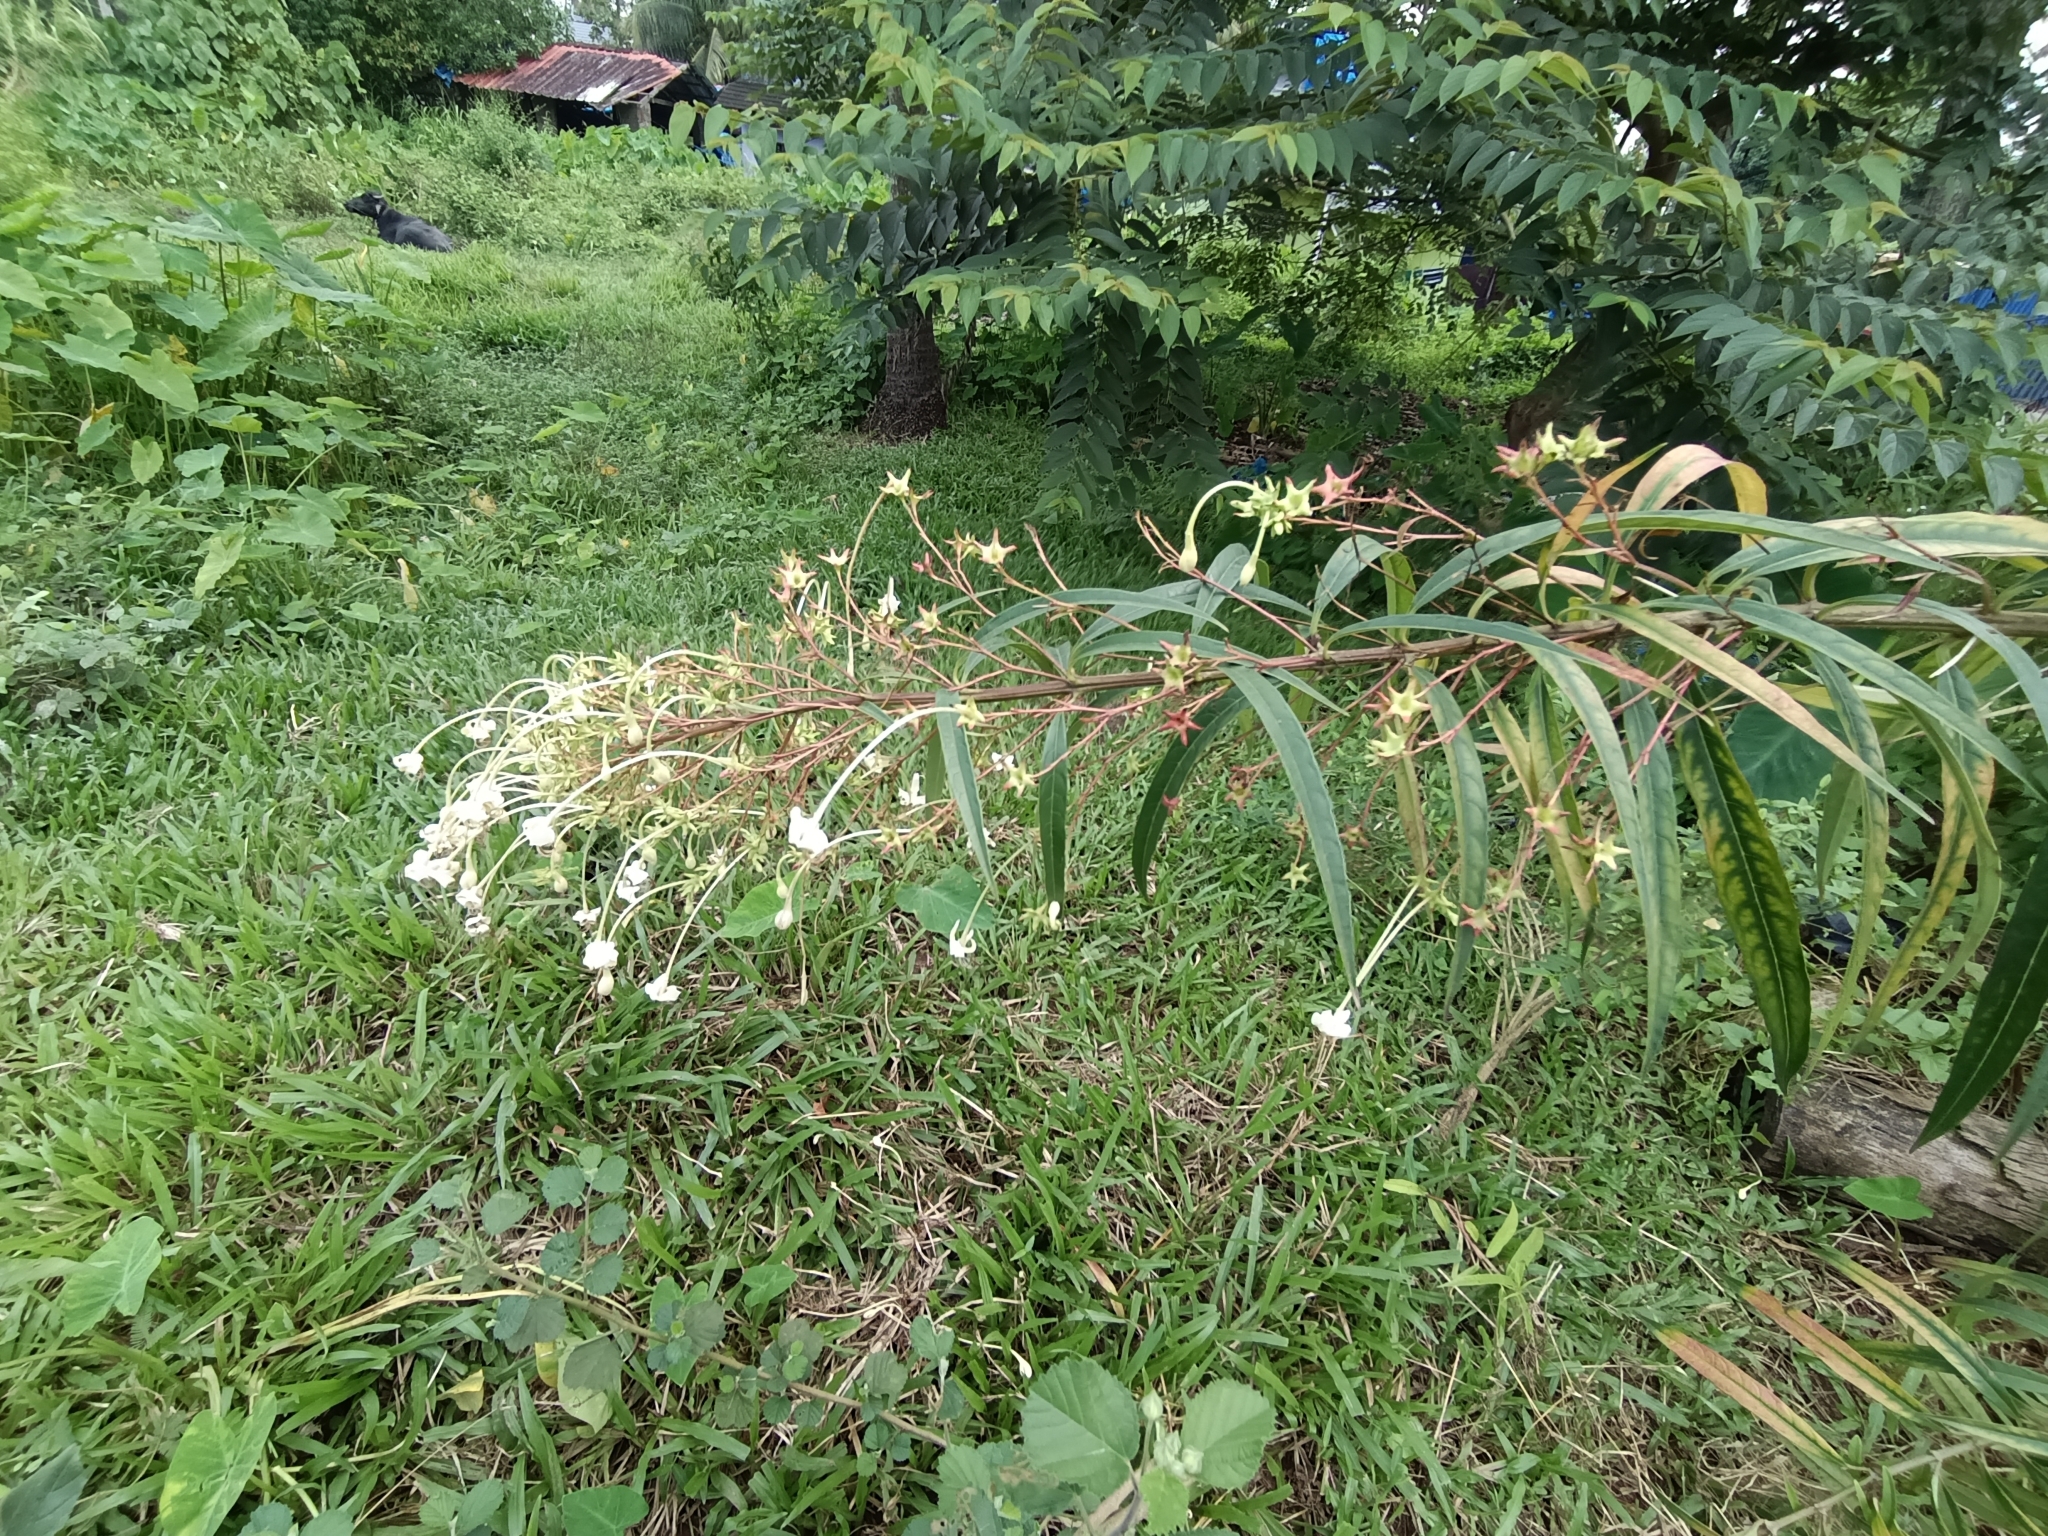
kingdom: Plantae
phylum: Tracheophyta
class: Magnoliopsida
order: Lamiales
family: Lamiaceae
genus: Clerodendrum
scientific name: Clerodendrum indicum
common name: Turk's turbin
